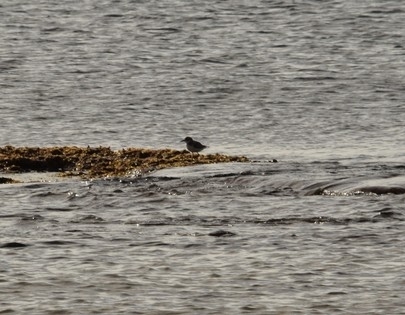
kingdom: Animalia
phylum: Chordata
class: Aves
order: Charadriiformes
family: Charadriidae
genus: Charadrius
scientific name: Charadrius leschenaultii
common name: Greater sand plover
